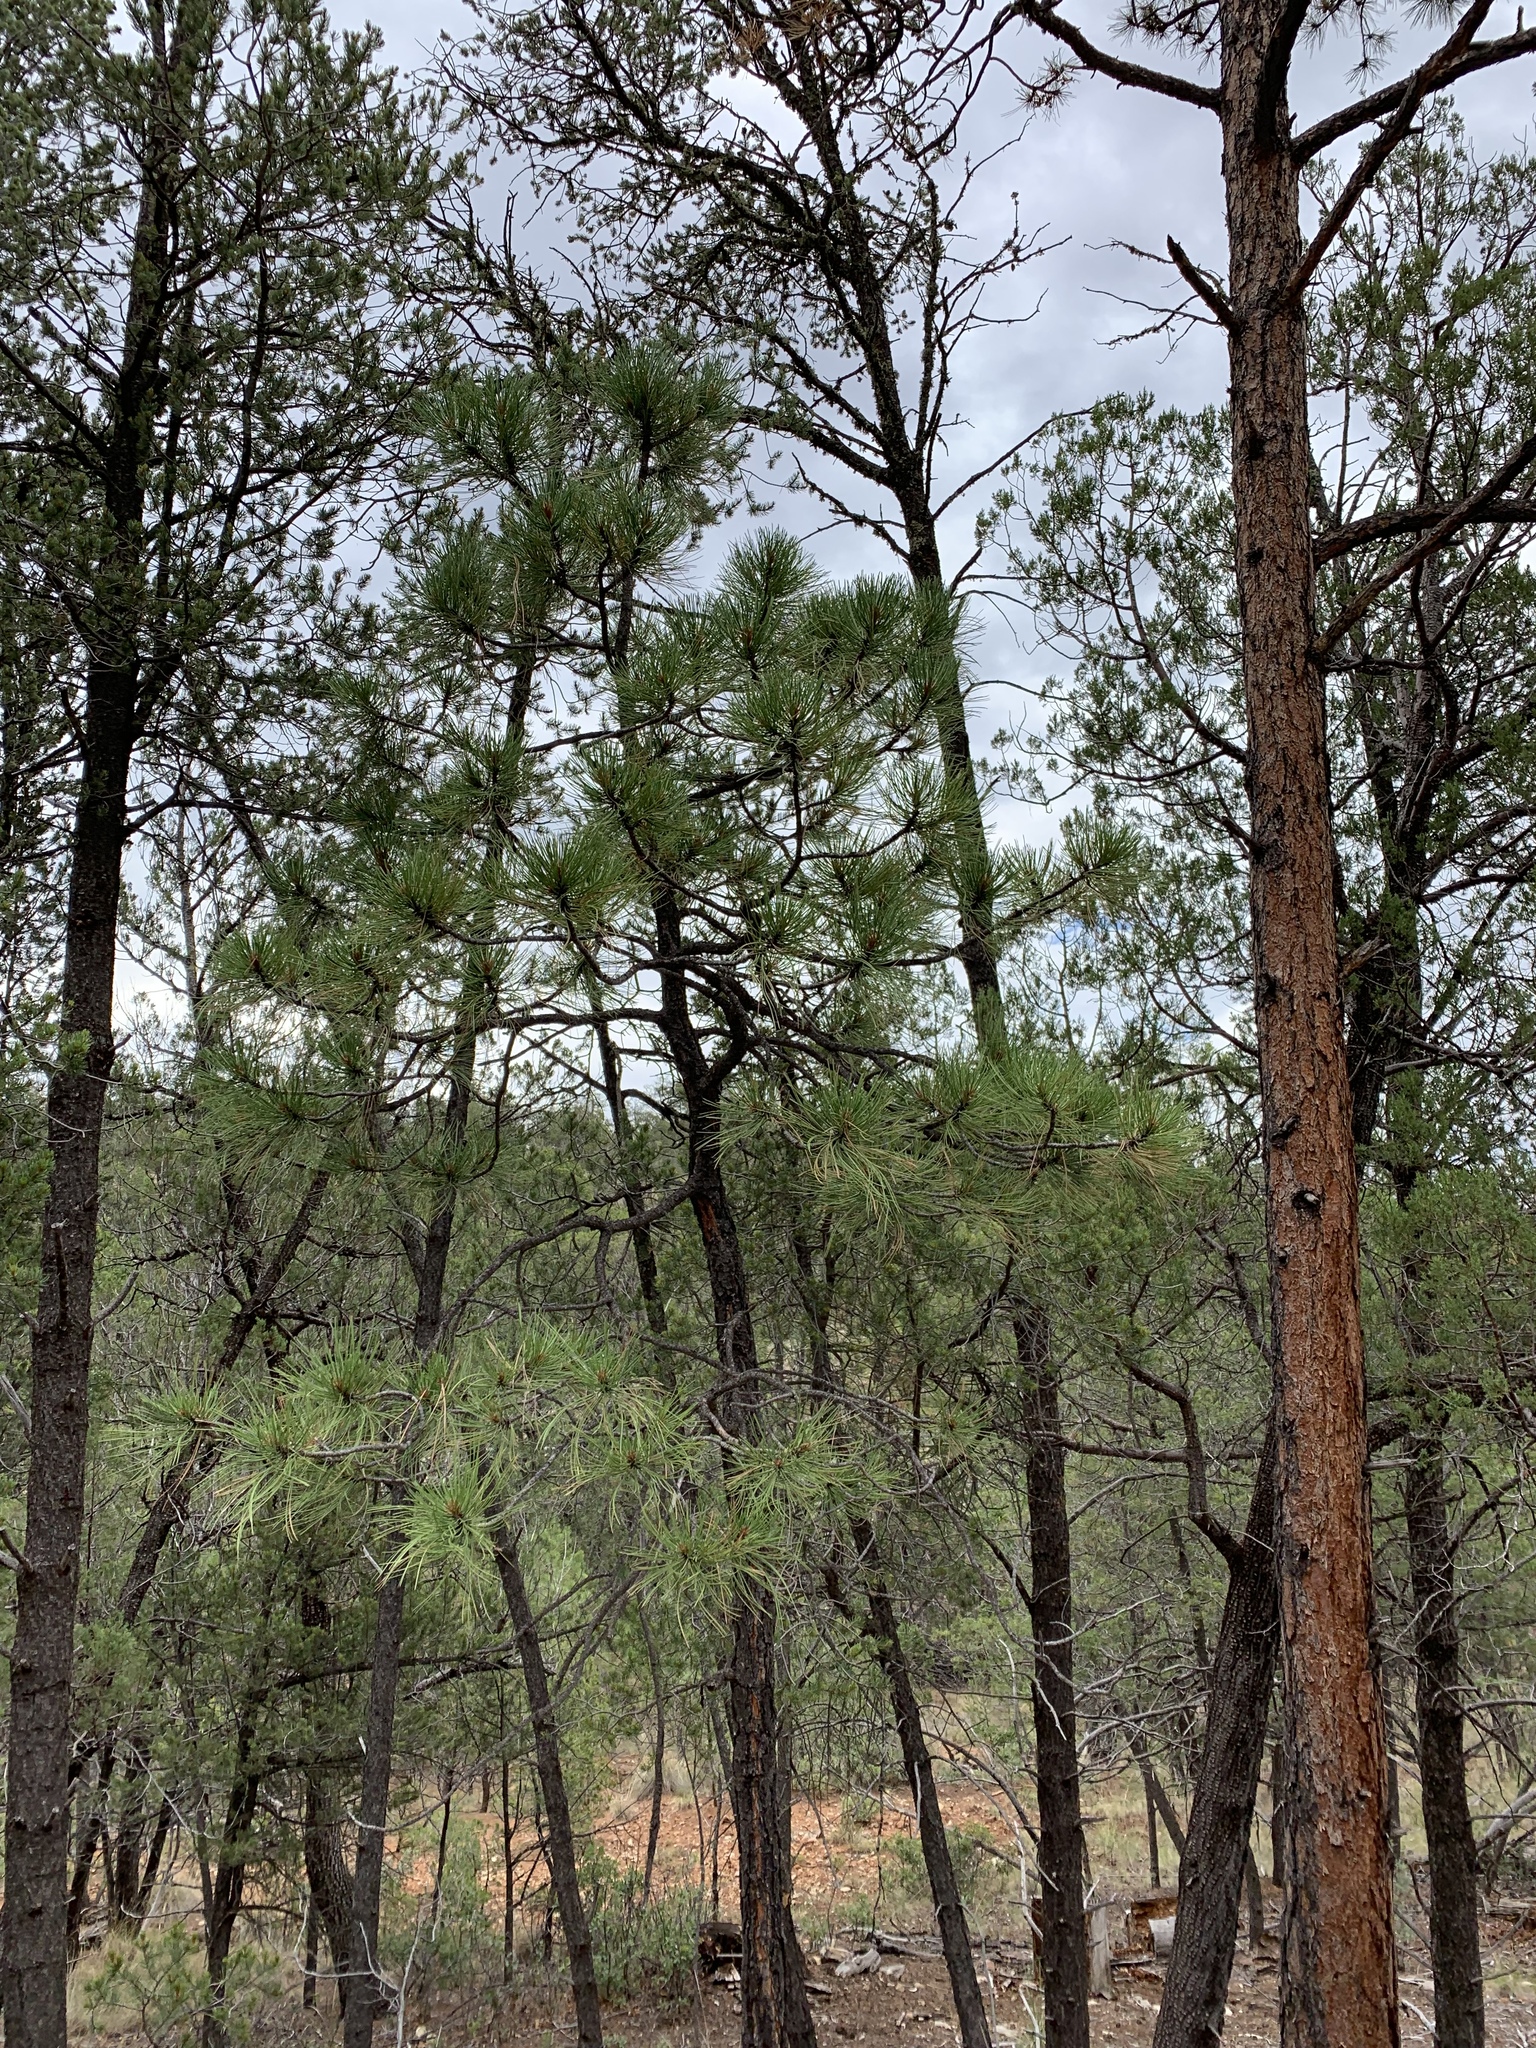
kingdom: Plantae
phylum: Tracheophyta
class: Pinopsida
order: Pinales
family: Pinaceae
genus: Pinus
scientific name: Pinus ponderosa
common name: Western yellow-pine
